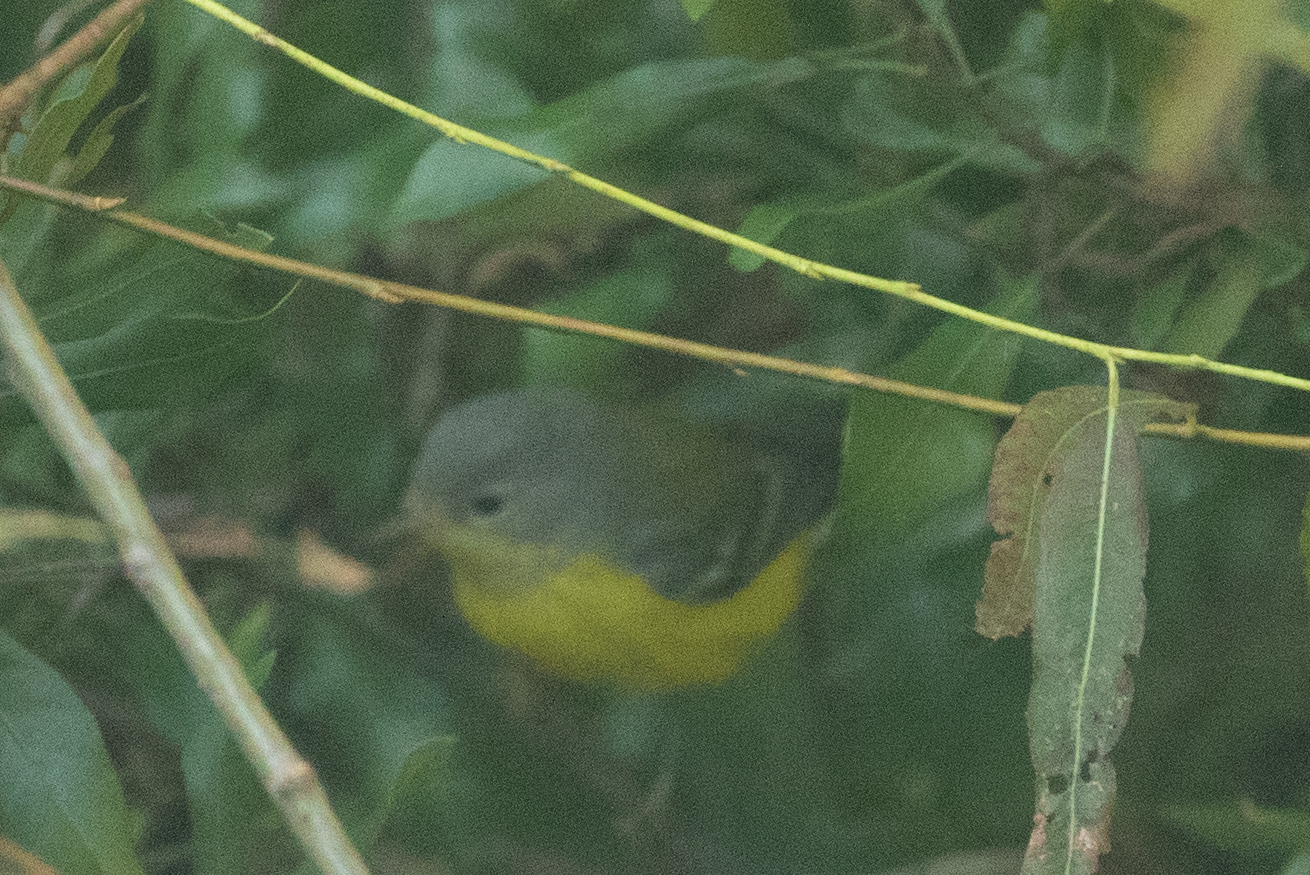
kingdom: Animalia
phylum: Chordata
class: Aves
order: Passeriformes
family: Parulidae
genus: Setophaga
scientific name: Setophaga magnolia
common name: Magnolia warbler
